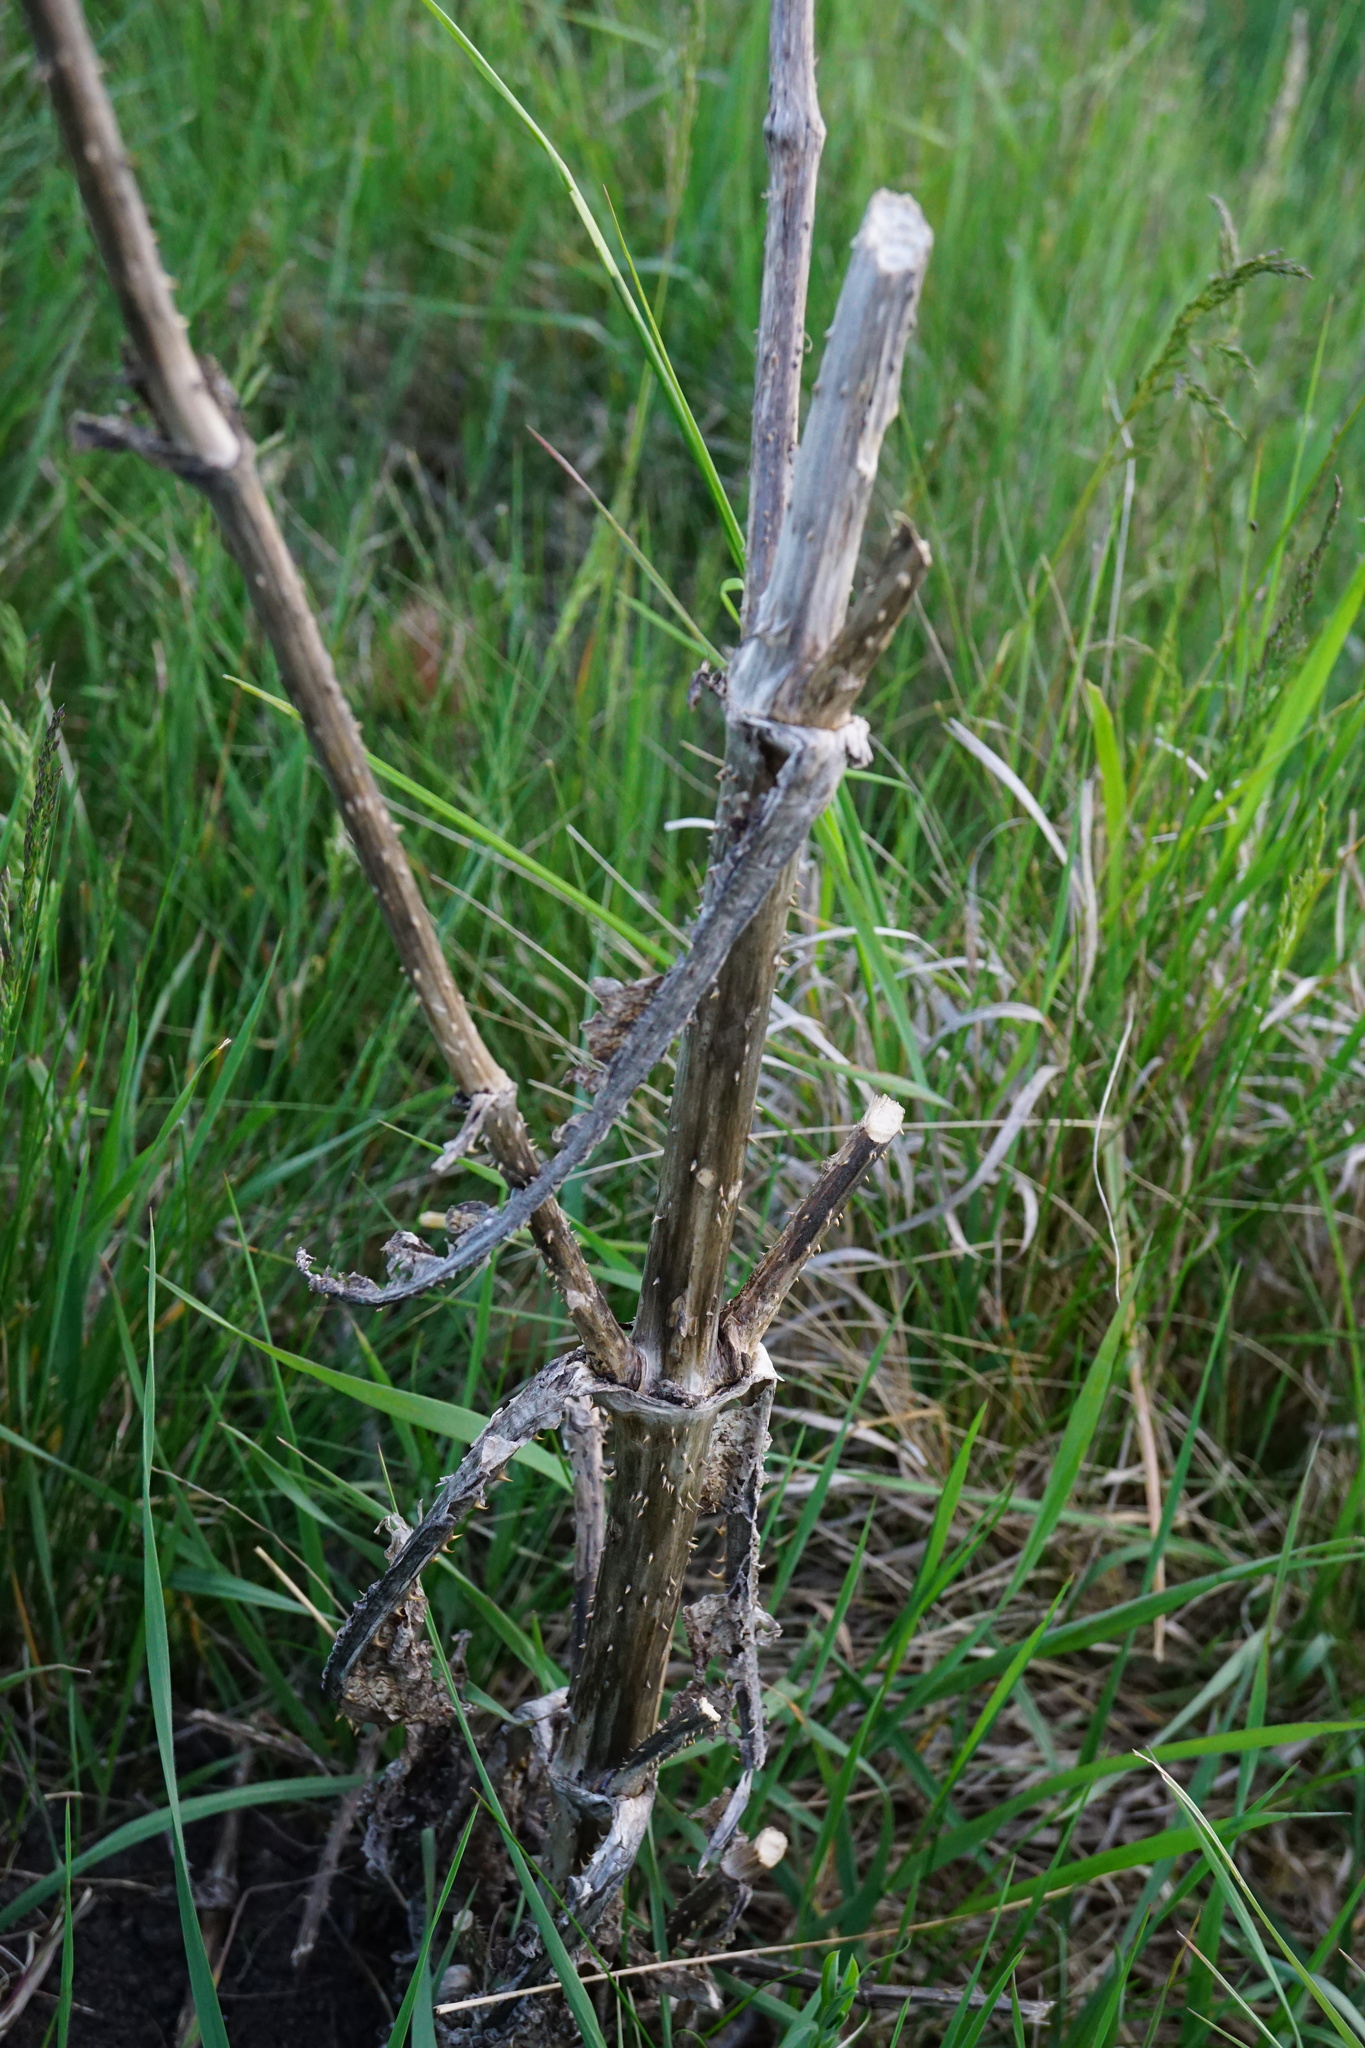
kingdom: Plantae
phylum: Tracheophyta
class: Magnoliopsida
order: Dipsacales
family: Caprifoliaceae
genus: Dipsacus
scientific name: Dipsacus fullonum
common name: Teasel
